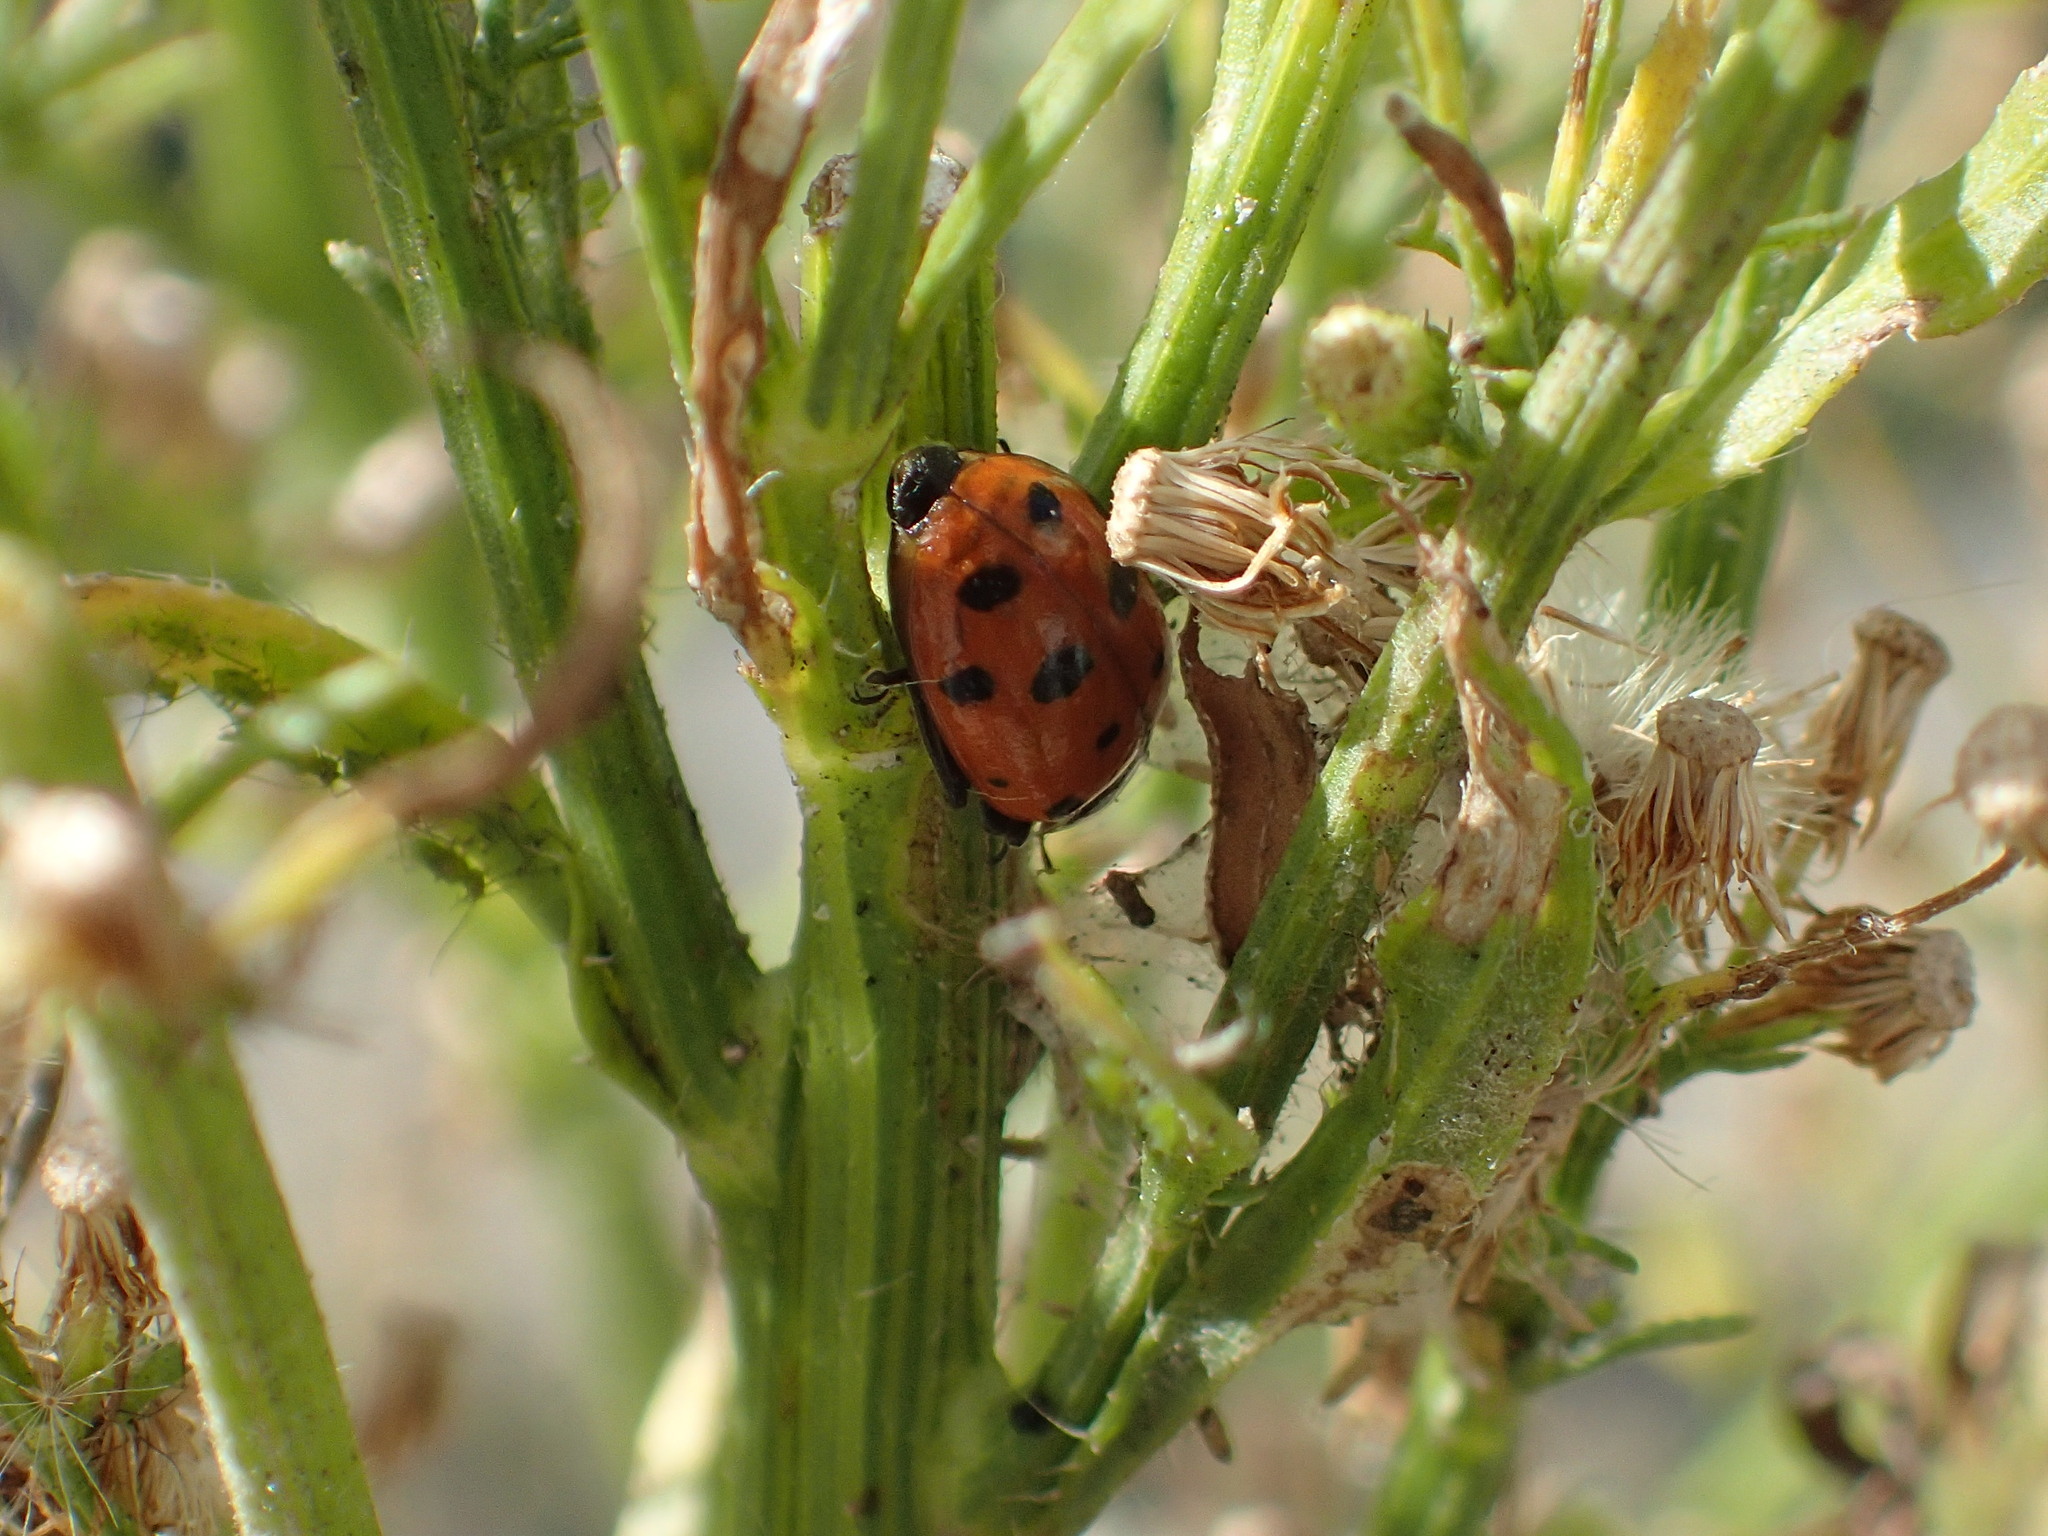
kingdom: Animalia
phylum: Arthropoda
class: Insecta
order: Coleoptera
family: Coccinellidae
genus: Hippodamia
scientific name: Hippodamia convergens
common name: Convergent lady beetle
